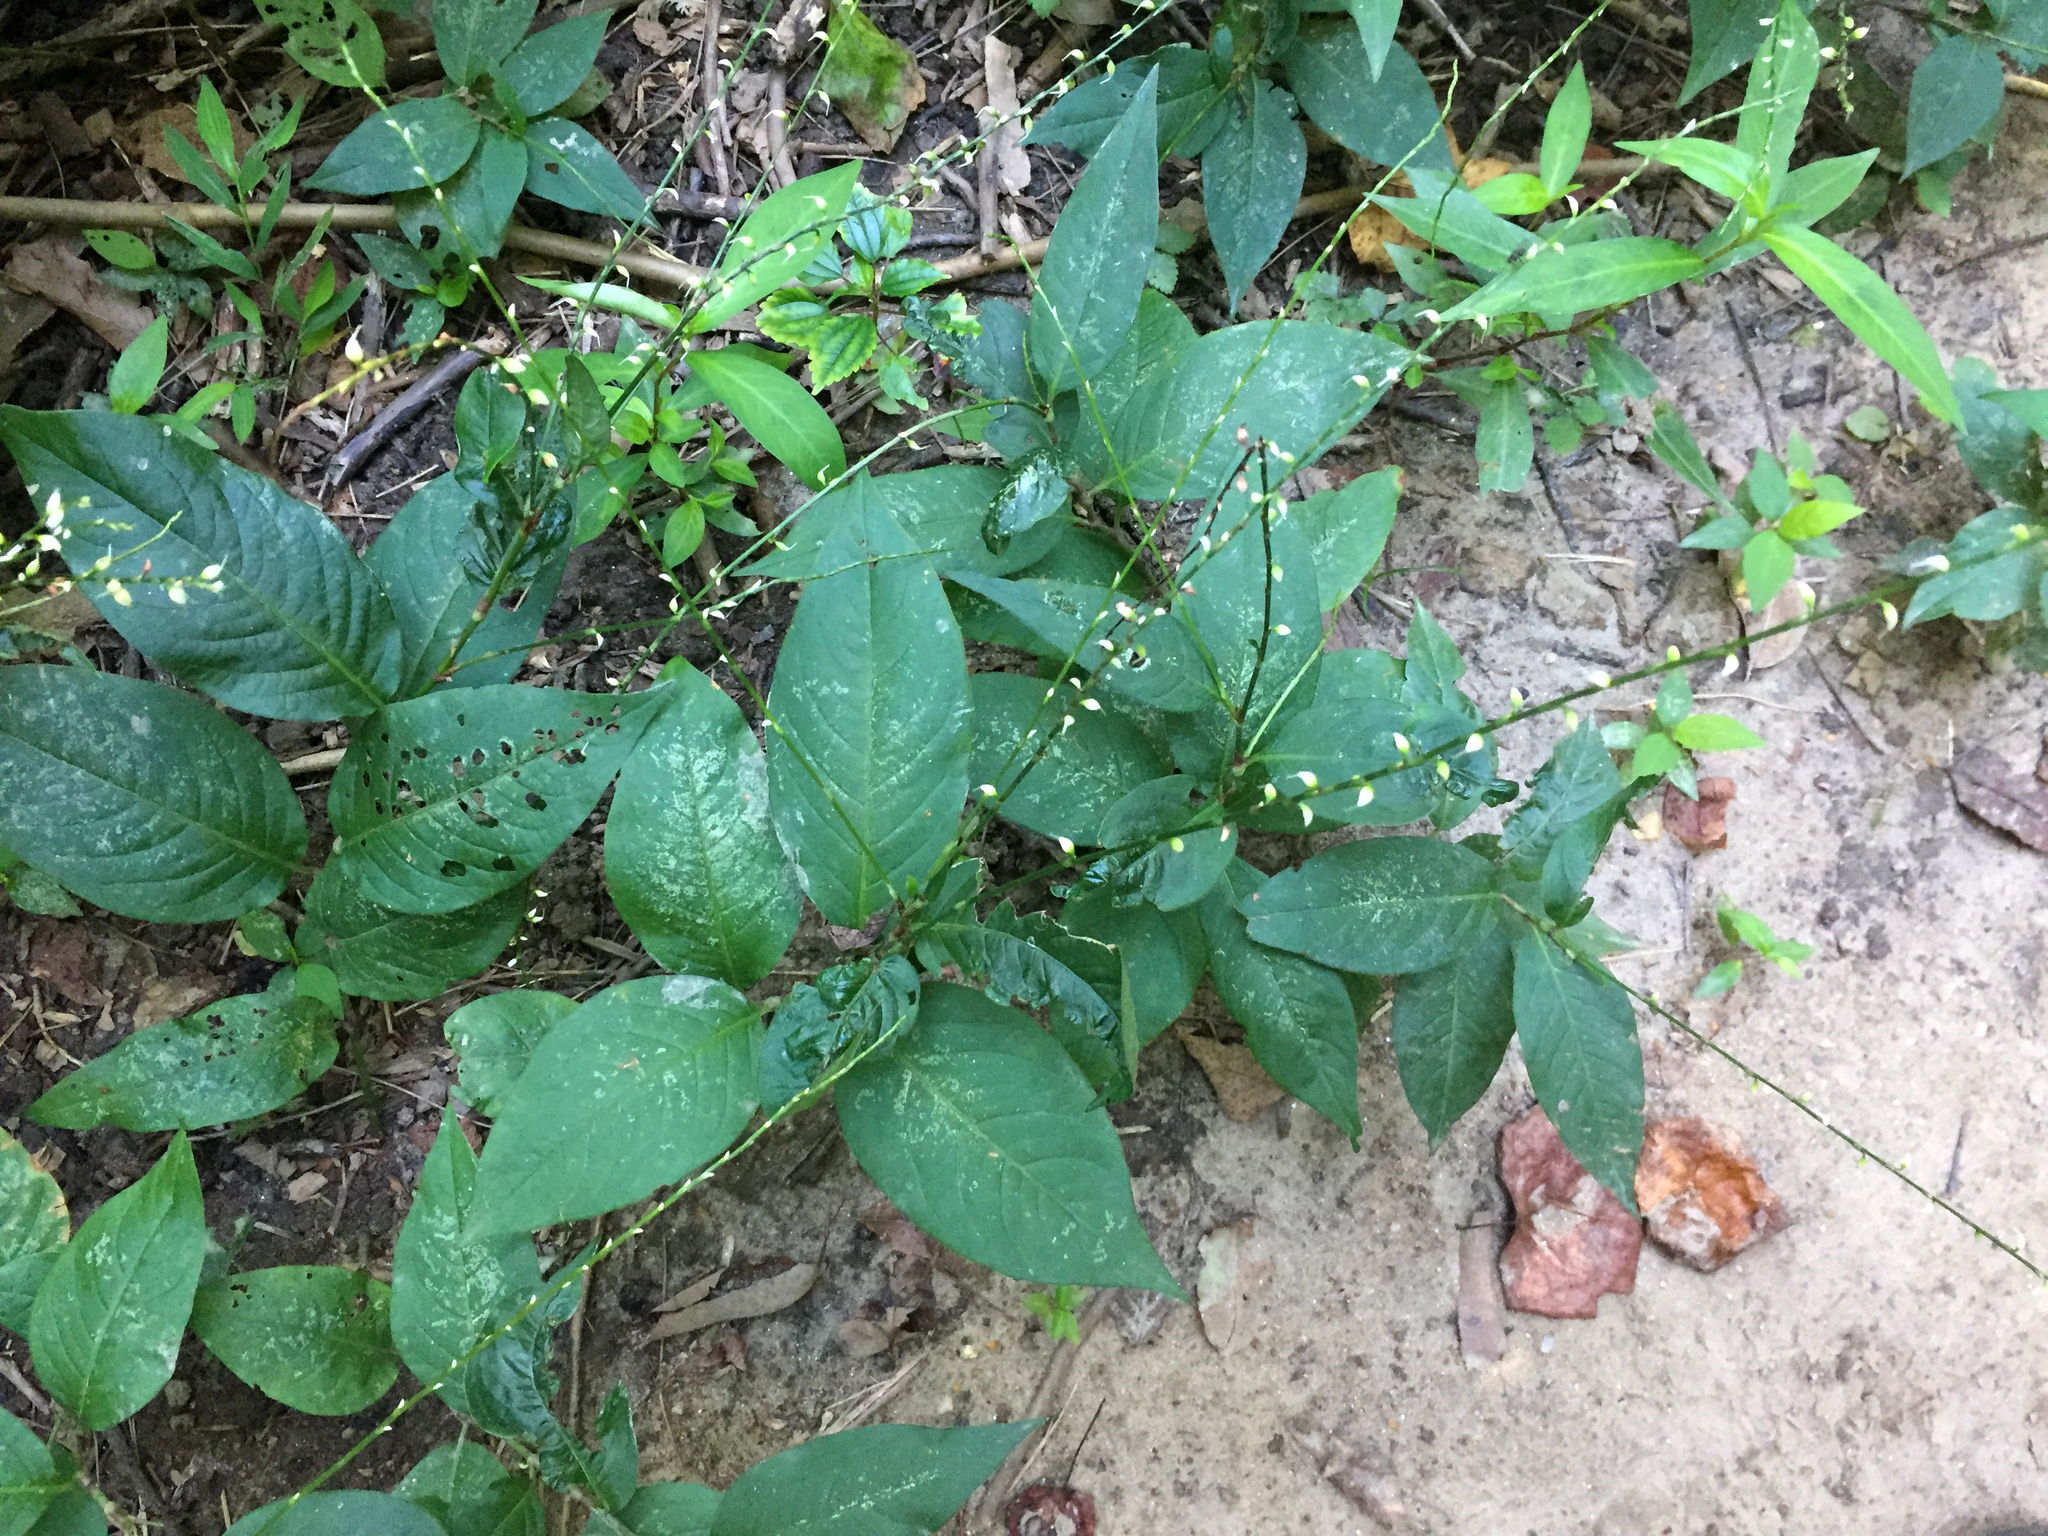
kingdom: Plantae
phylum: Tracheophyta
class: Magnoliopsida
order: Caryophyllales
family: Polygonaceae
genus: Persicaria
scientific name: Persicaria virginiana
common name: Jumpseed
